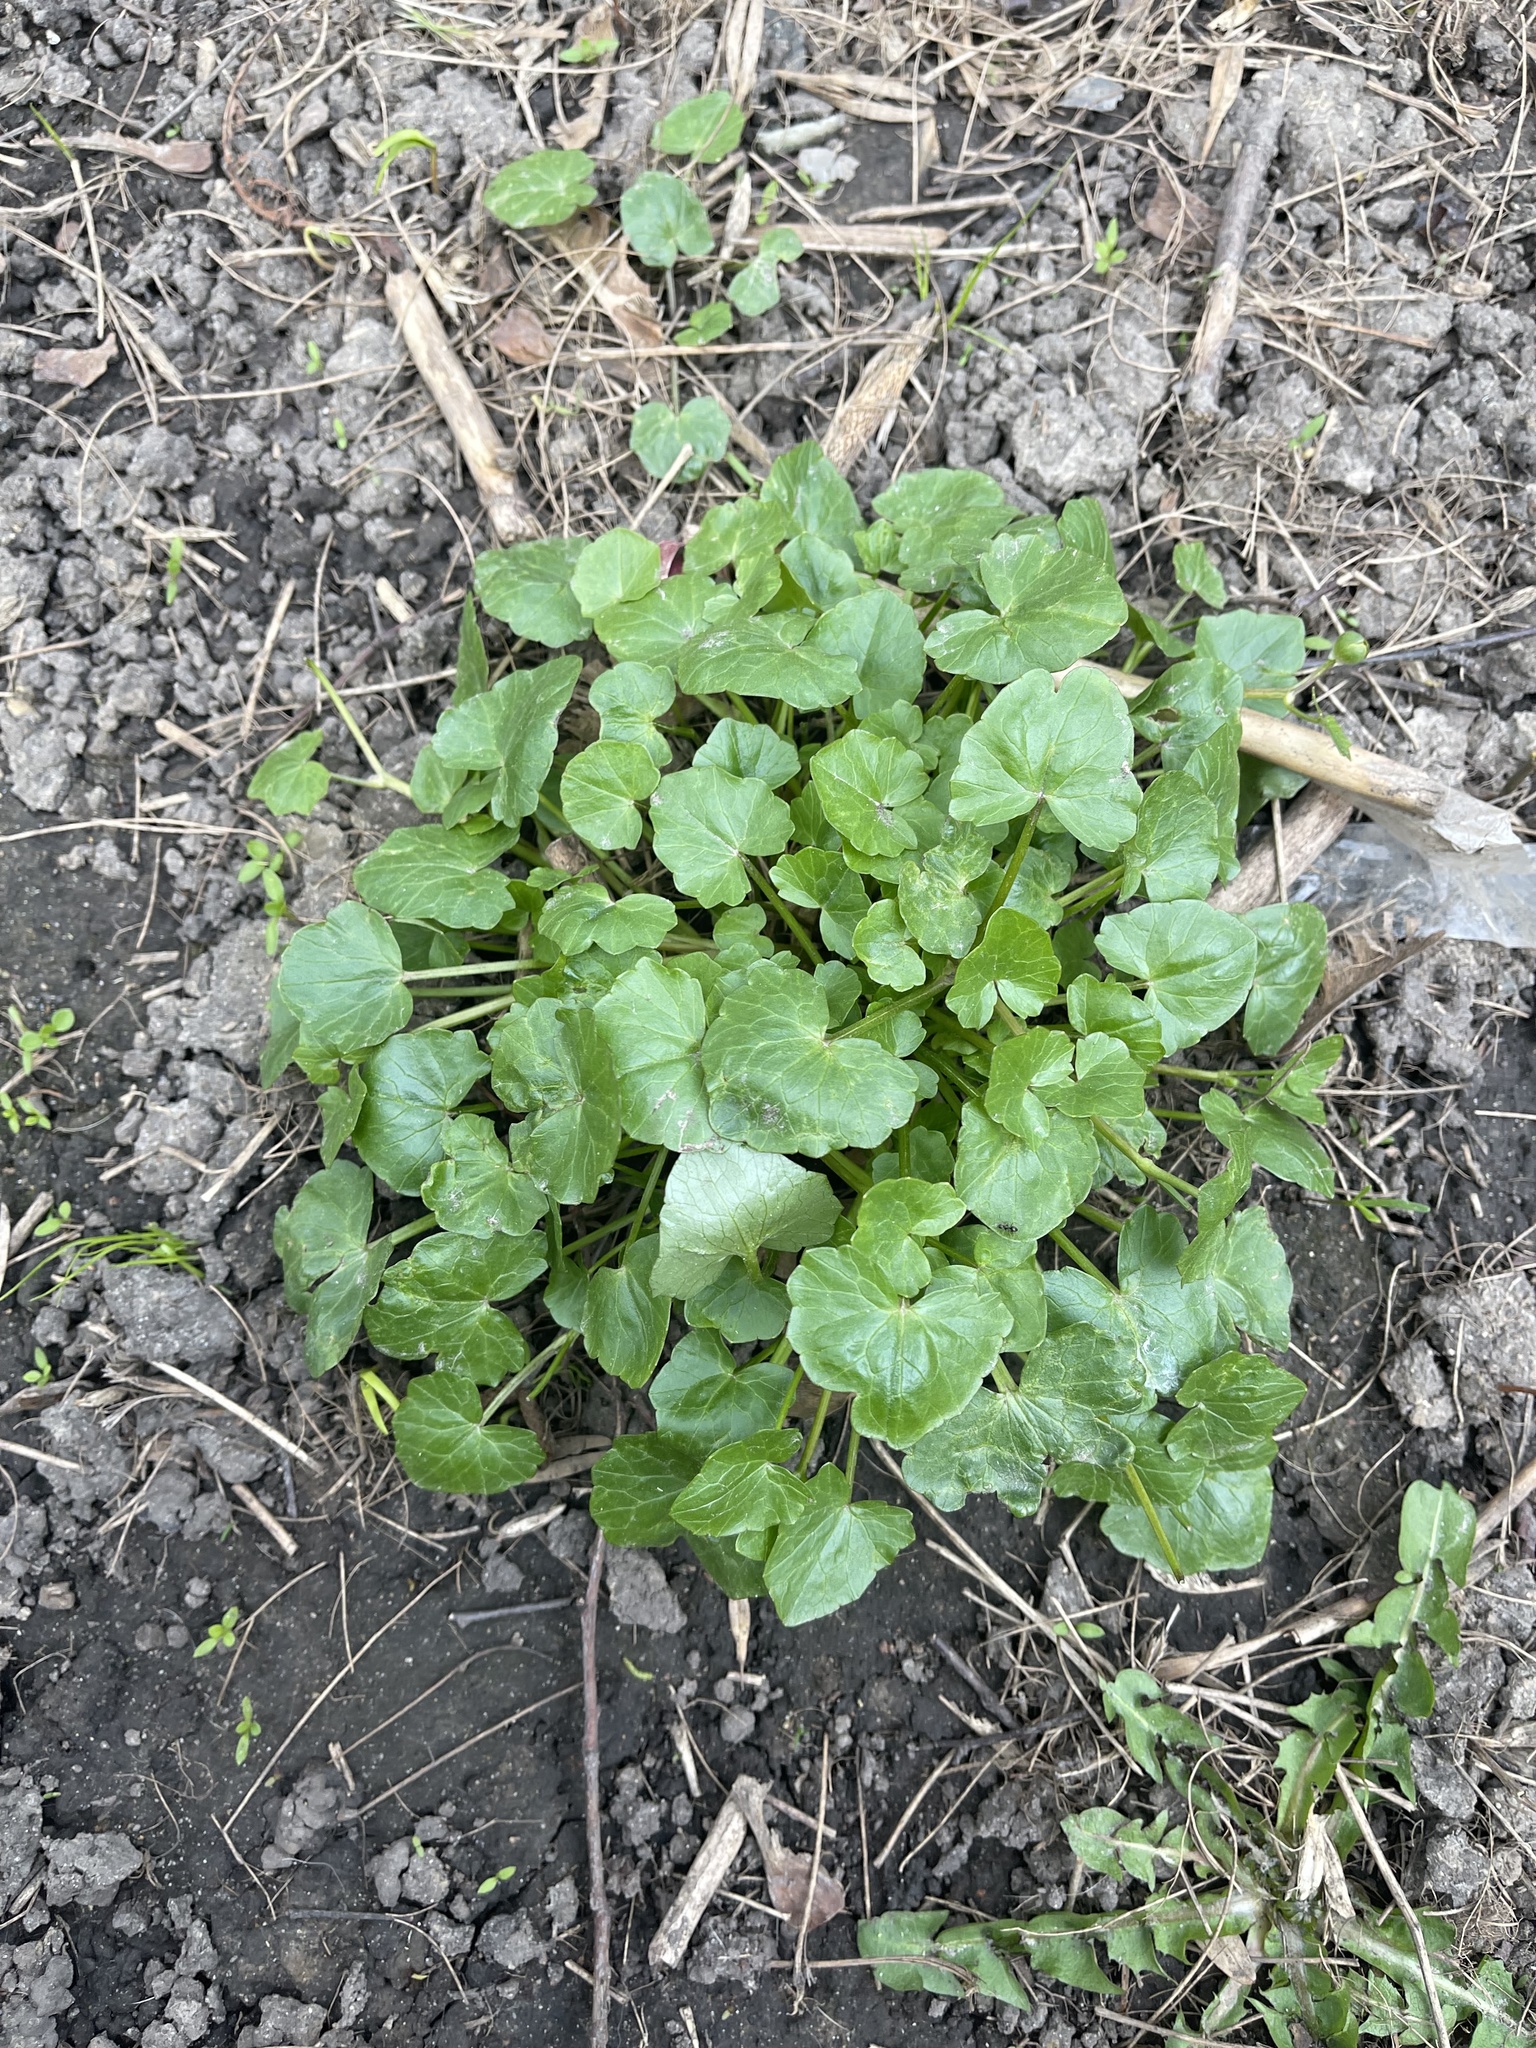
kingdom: Plantae
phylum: Tracheophyta
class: Magnoliopsida
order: Ranunculales
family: Ranunculaceae
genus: Ficaria
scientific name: Ficaria verna
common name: Lesser celandine
